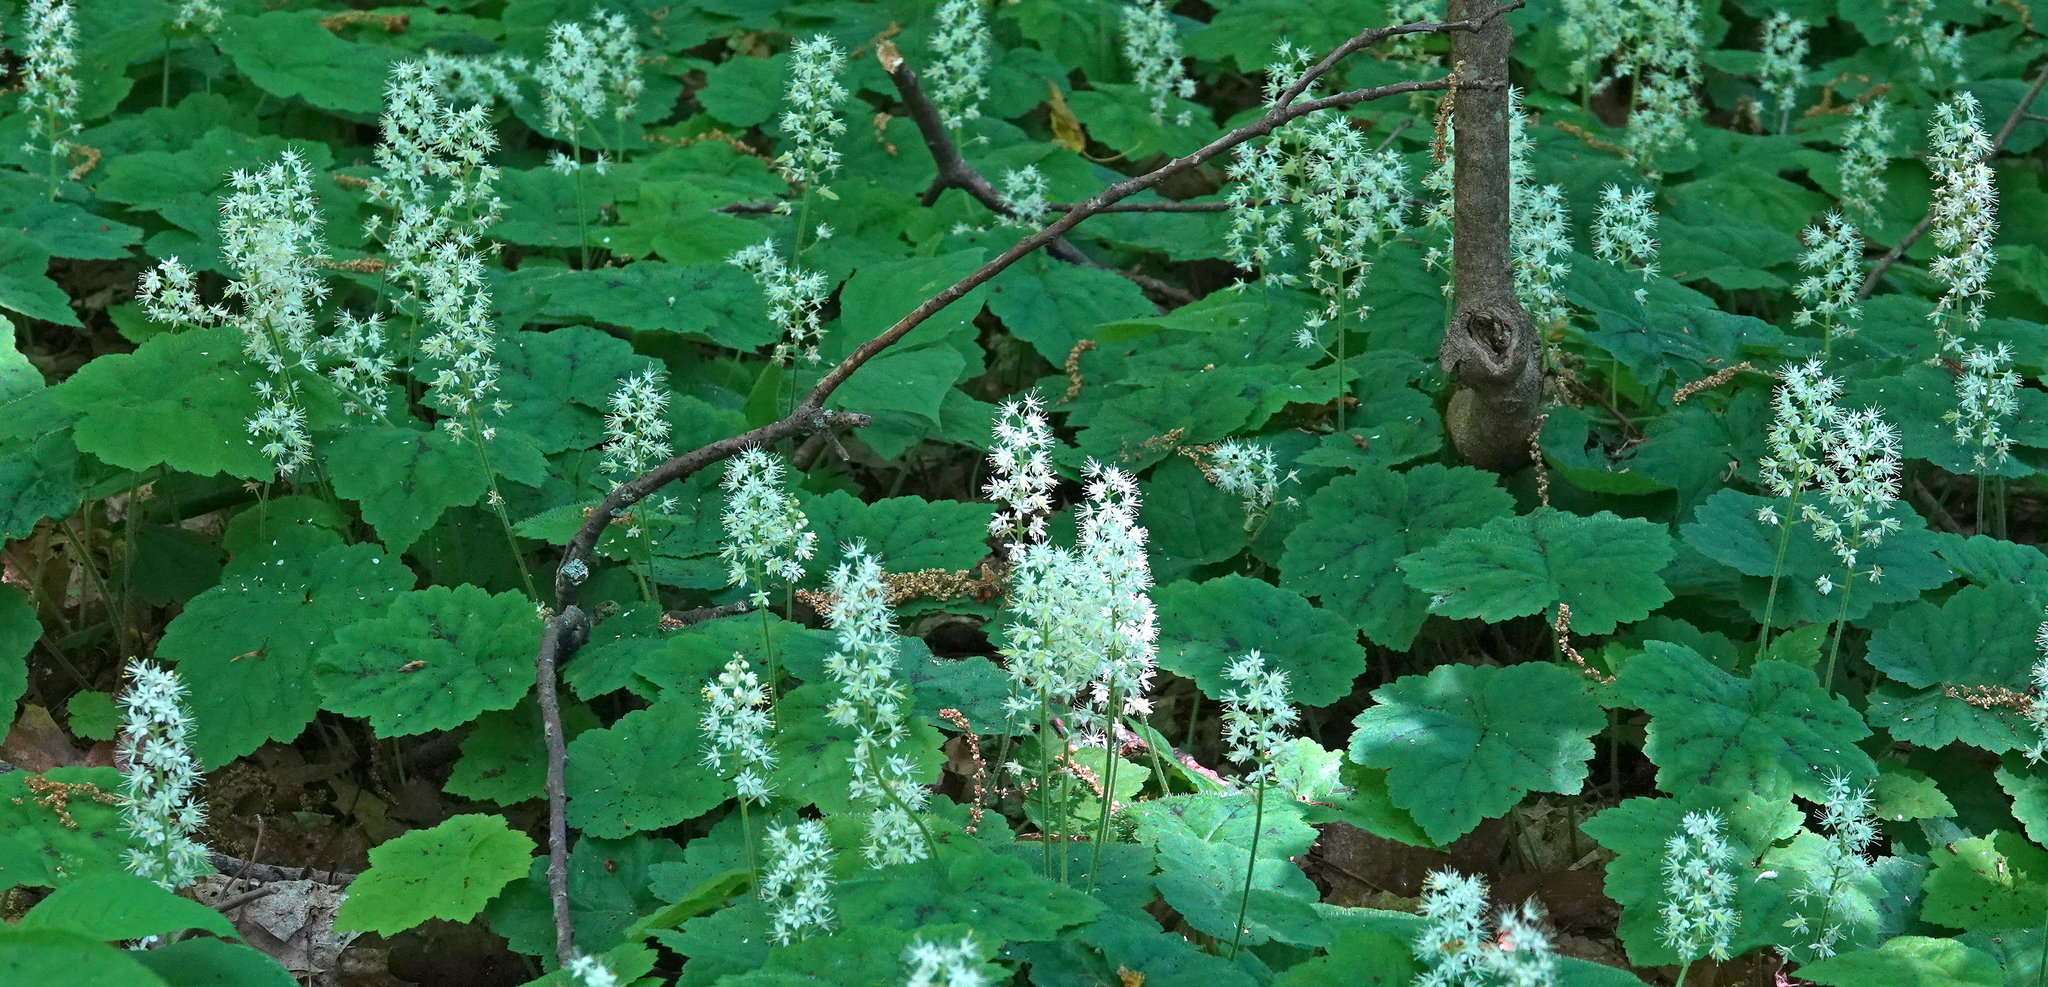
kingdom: Plantae
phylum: Tracheophyta
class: Magnoliopsida
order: Saxifragales
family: Saxifragaceae
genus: Tiarella
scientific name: Tiarella stolonifera
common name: Stoloniferous foamflower
